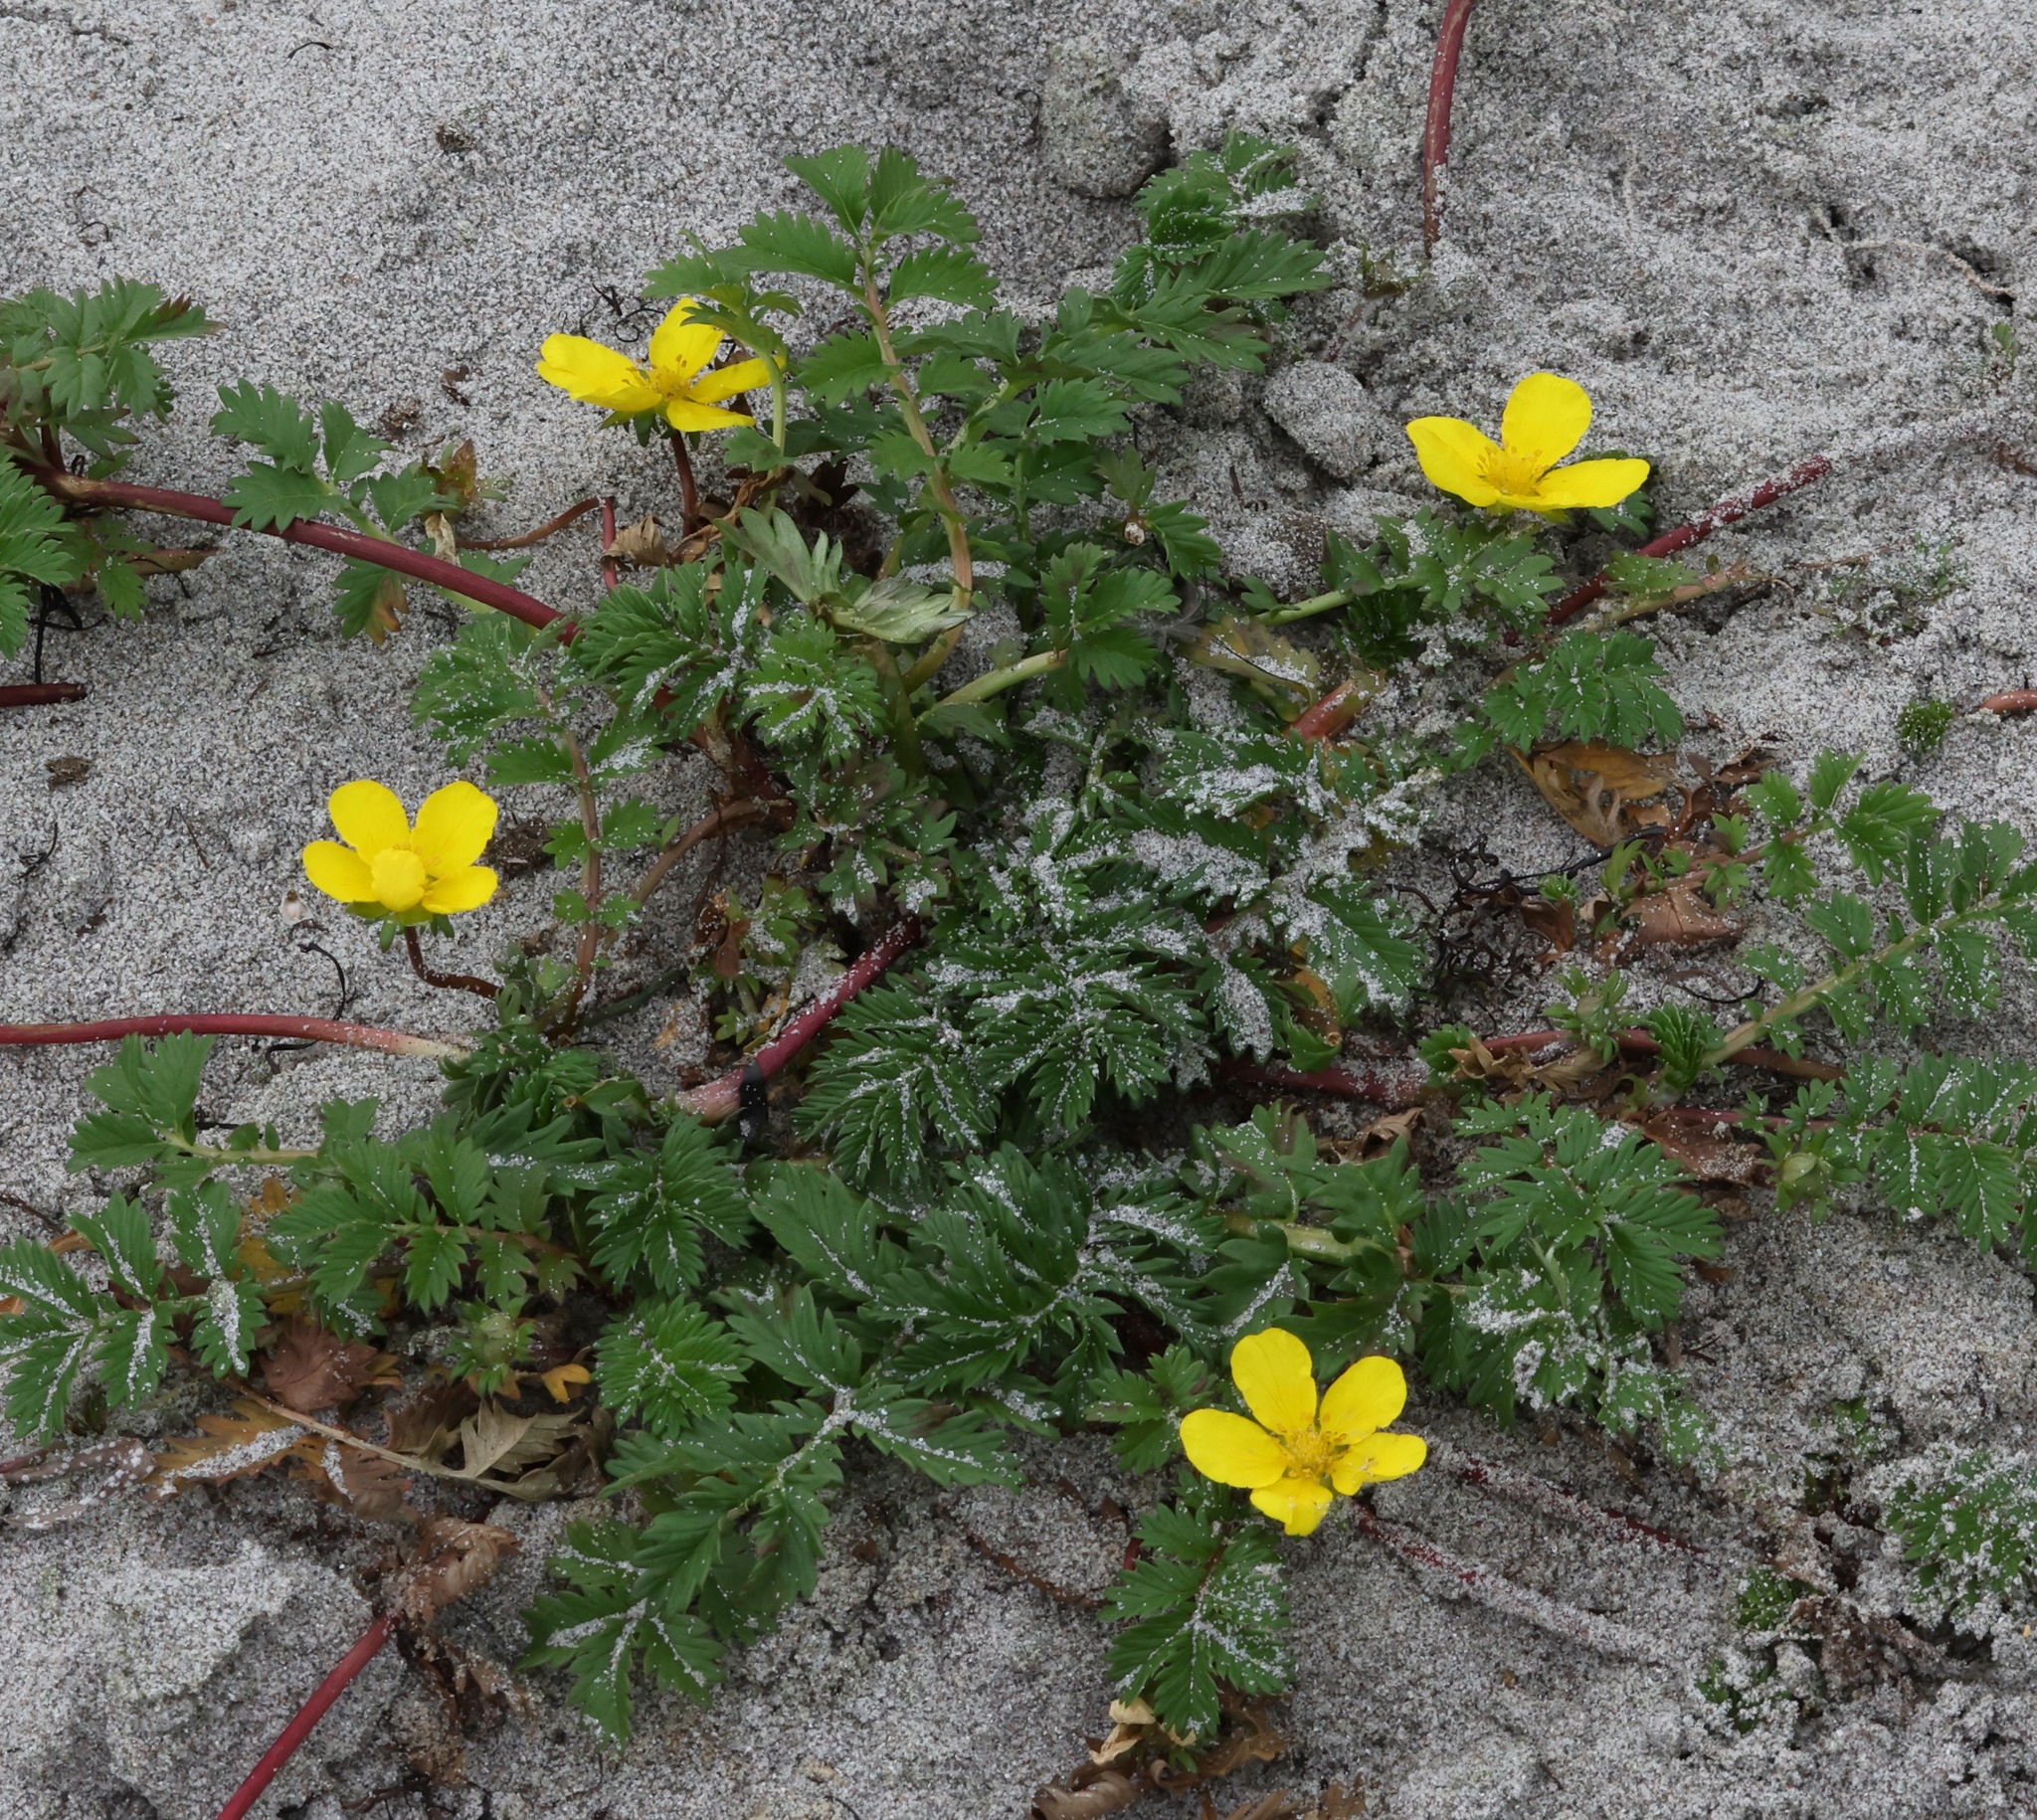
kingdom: Plantae
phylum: Tracheophyta
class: Magnoliopsida
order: Rosales
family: Rosaceae
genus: Argentina
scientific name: Argentina anserina
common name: Common silverweed
